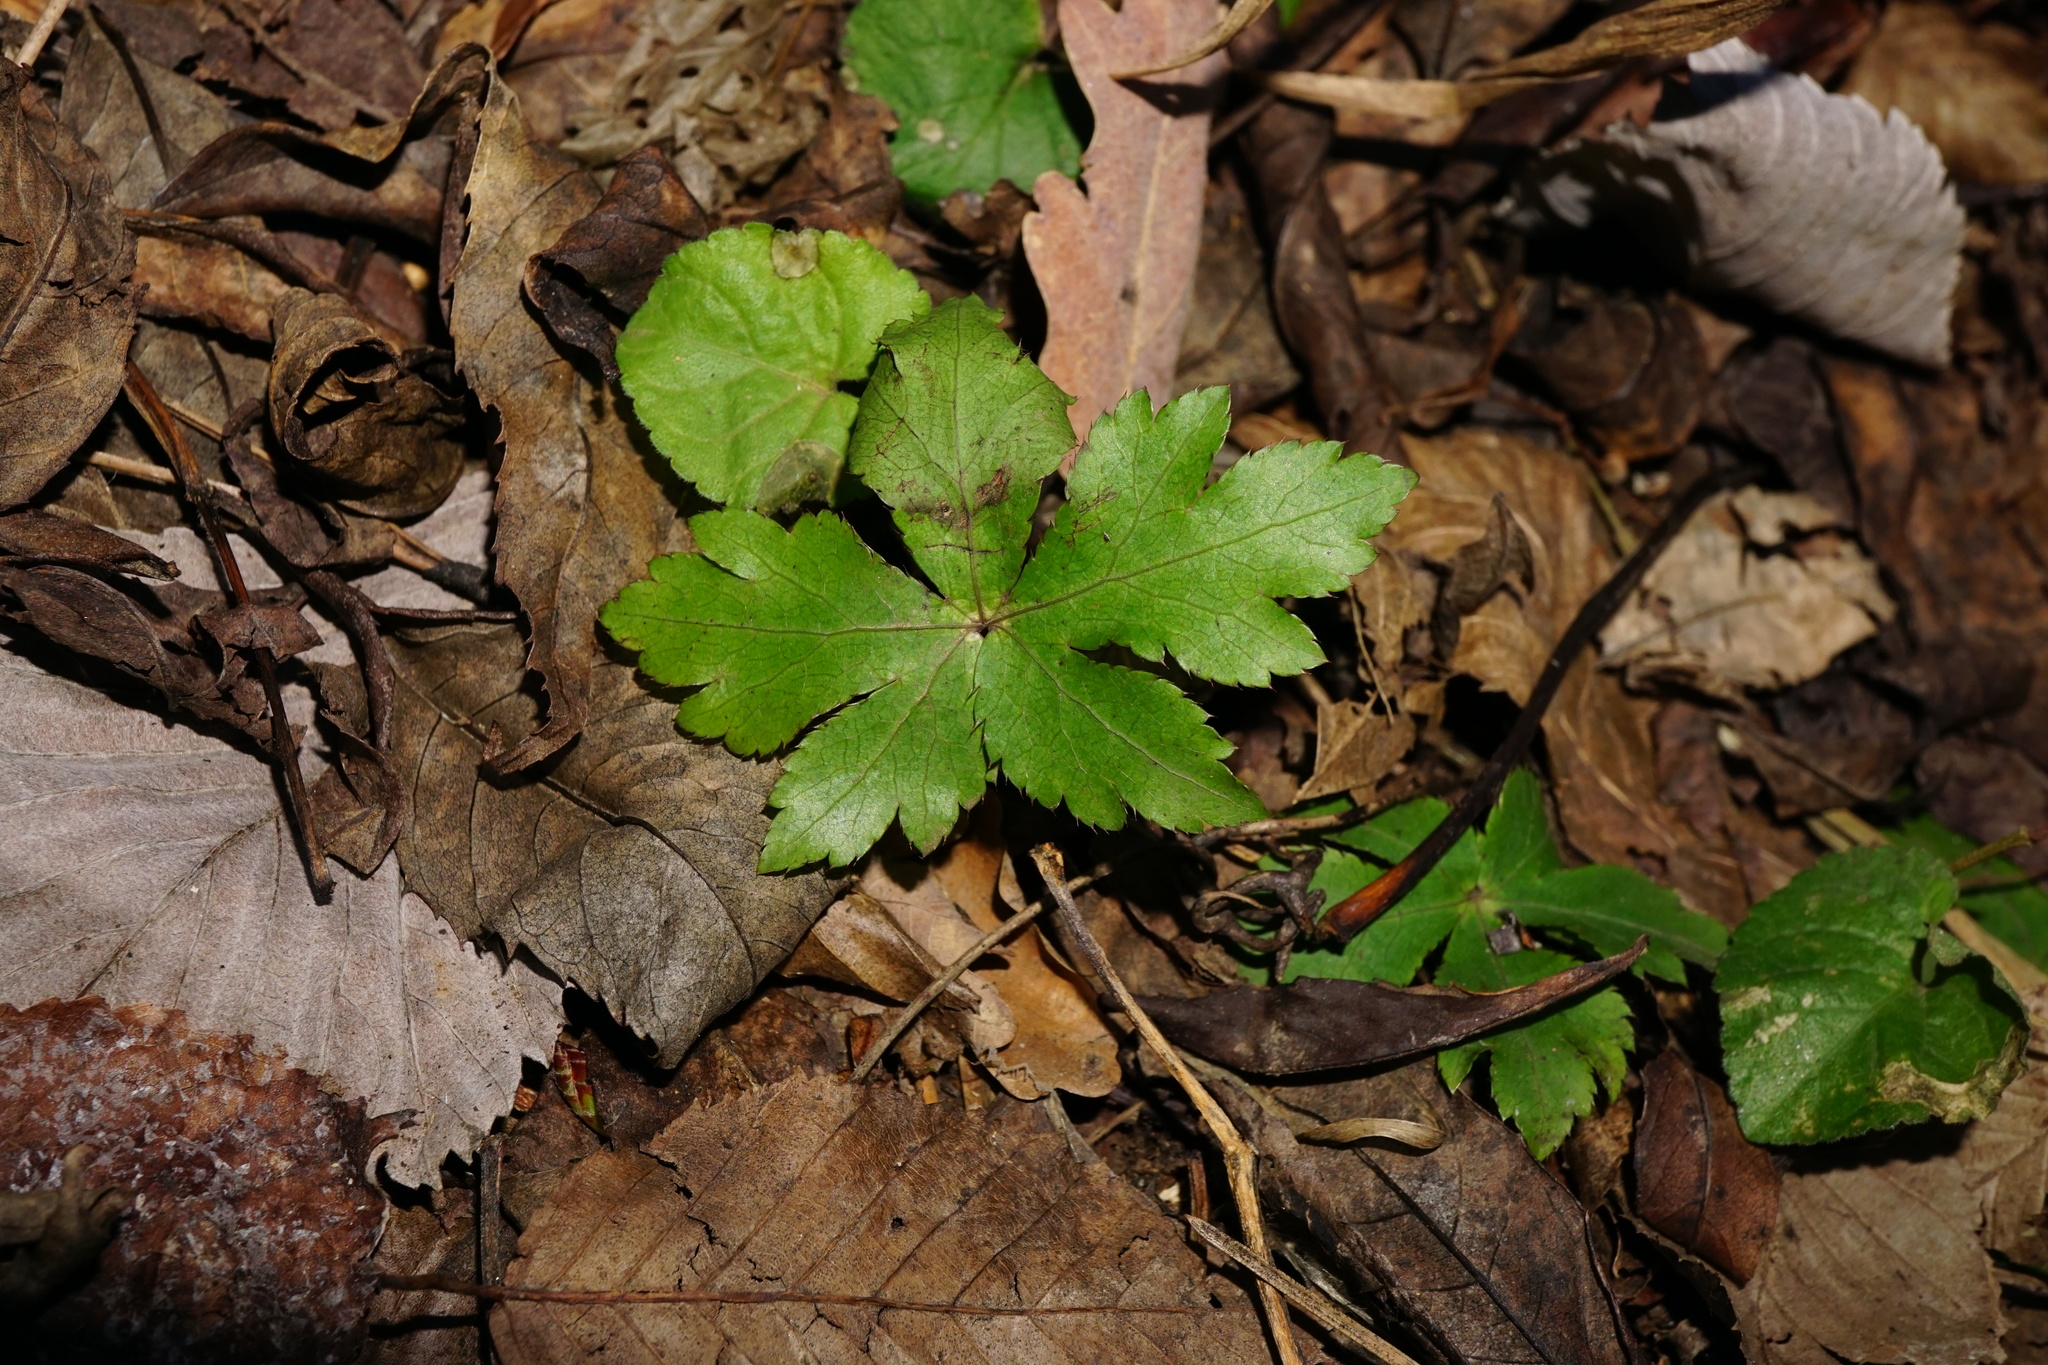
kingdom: Plantae
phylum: Tracheophyta
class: Magnoliopsida
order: Apiales
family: Apiaceae
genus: Sanicula
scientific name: Sanicula europaea
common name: Sanicle
